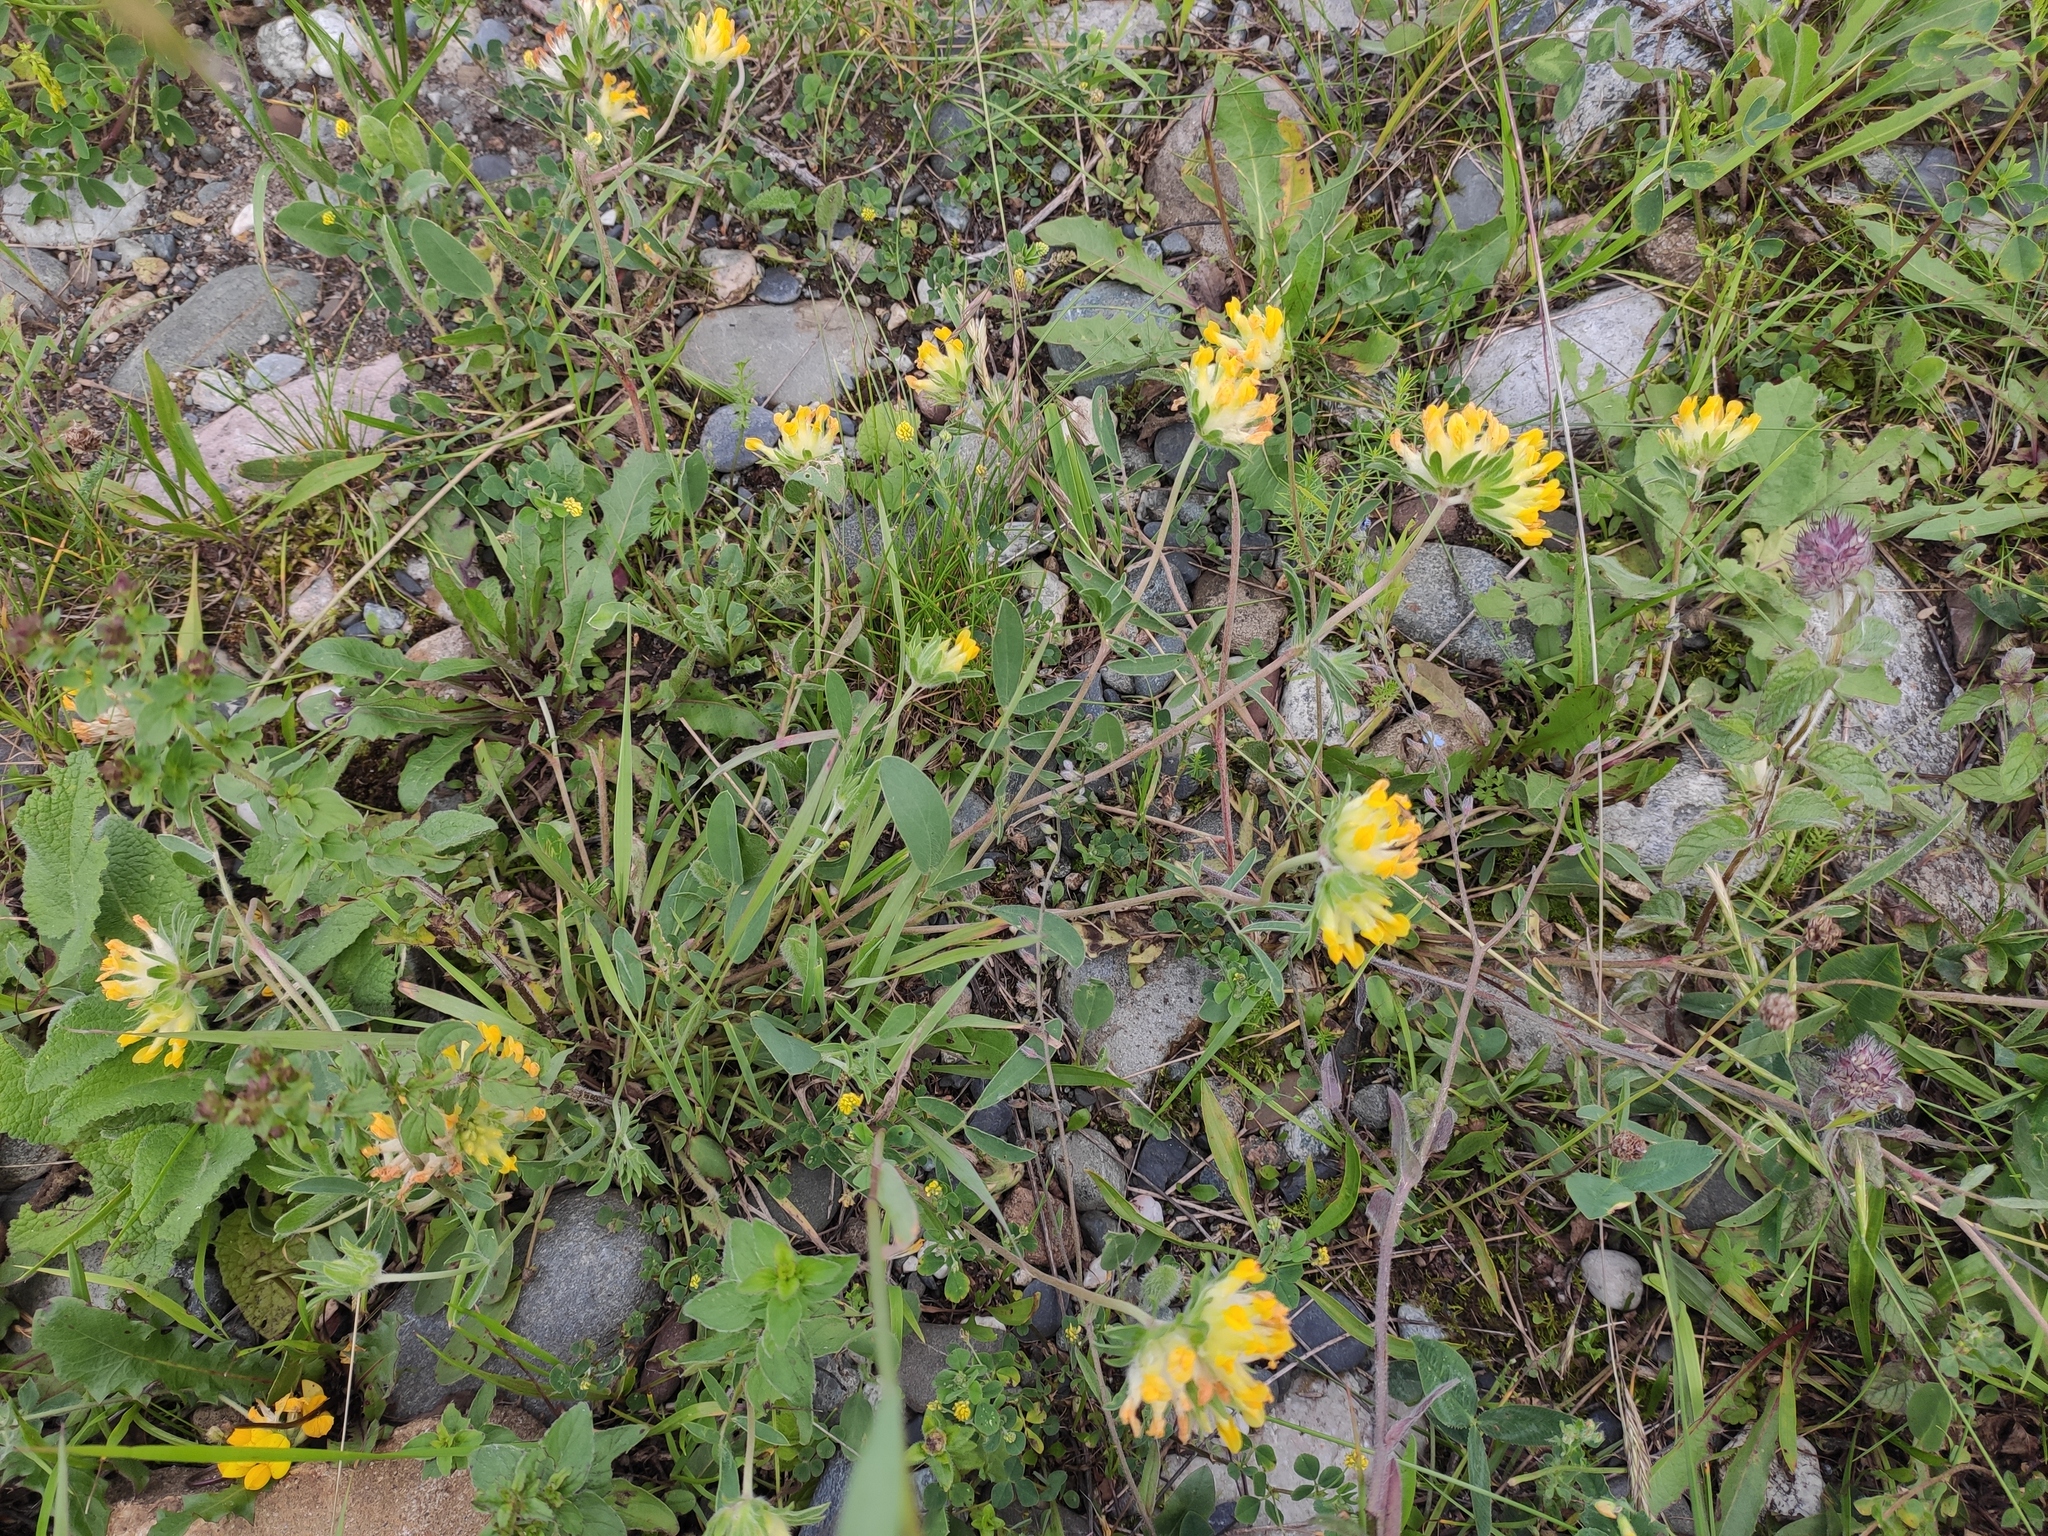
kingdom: Plantae
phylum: Tracheophyta
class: Magnoliopsida
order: Fabales
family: Fabaceae
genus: Anthyllis
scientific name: Anthyllis vulneraria
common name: Kidney vetch
